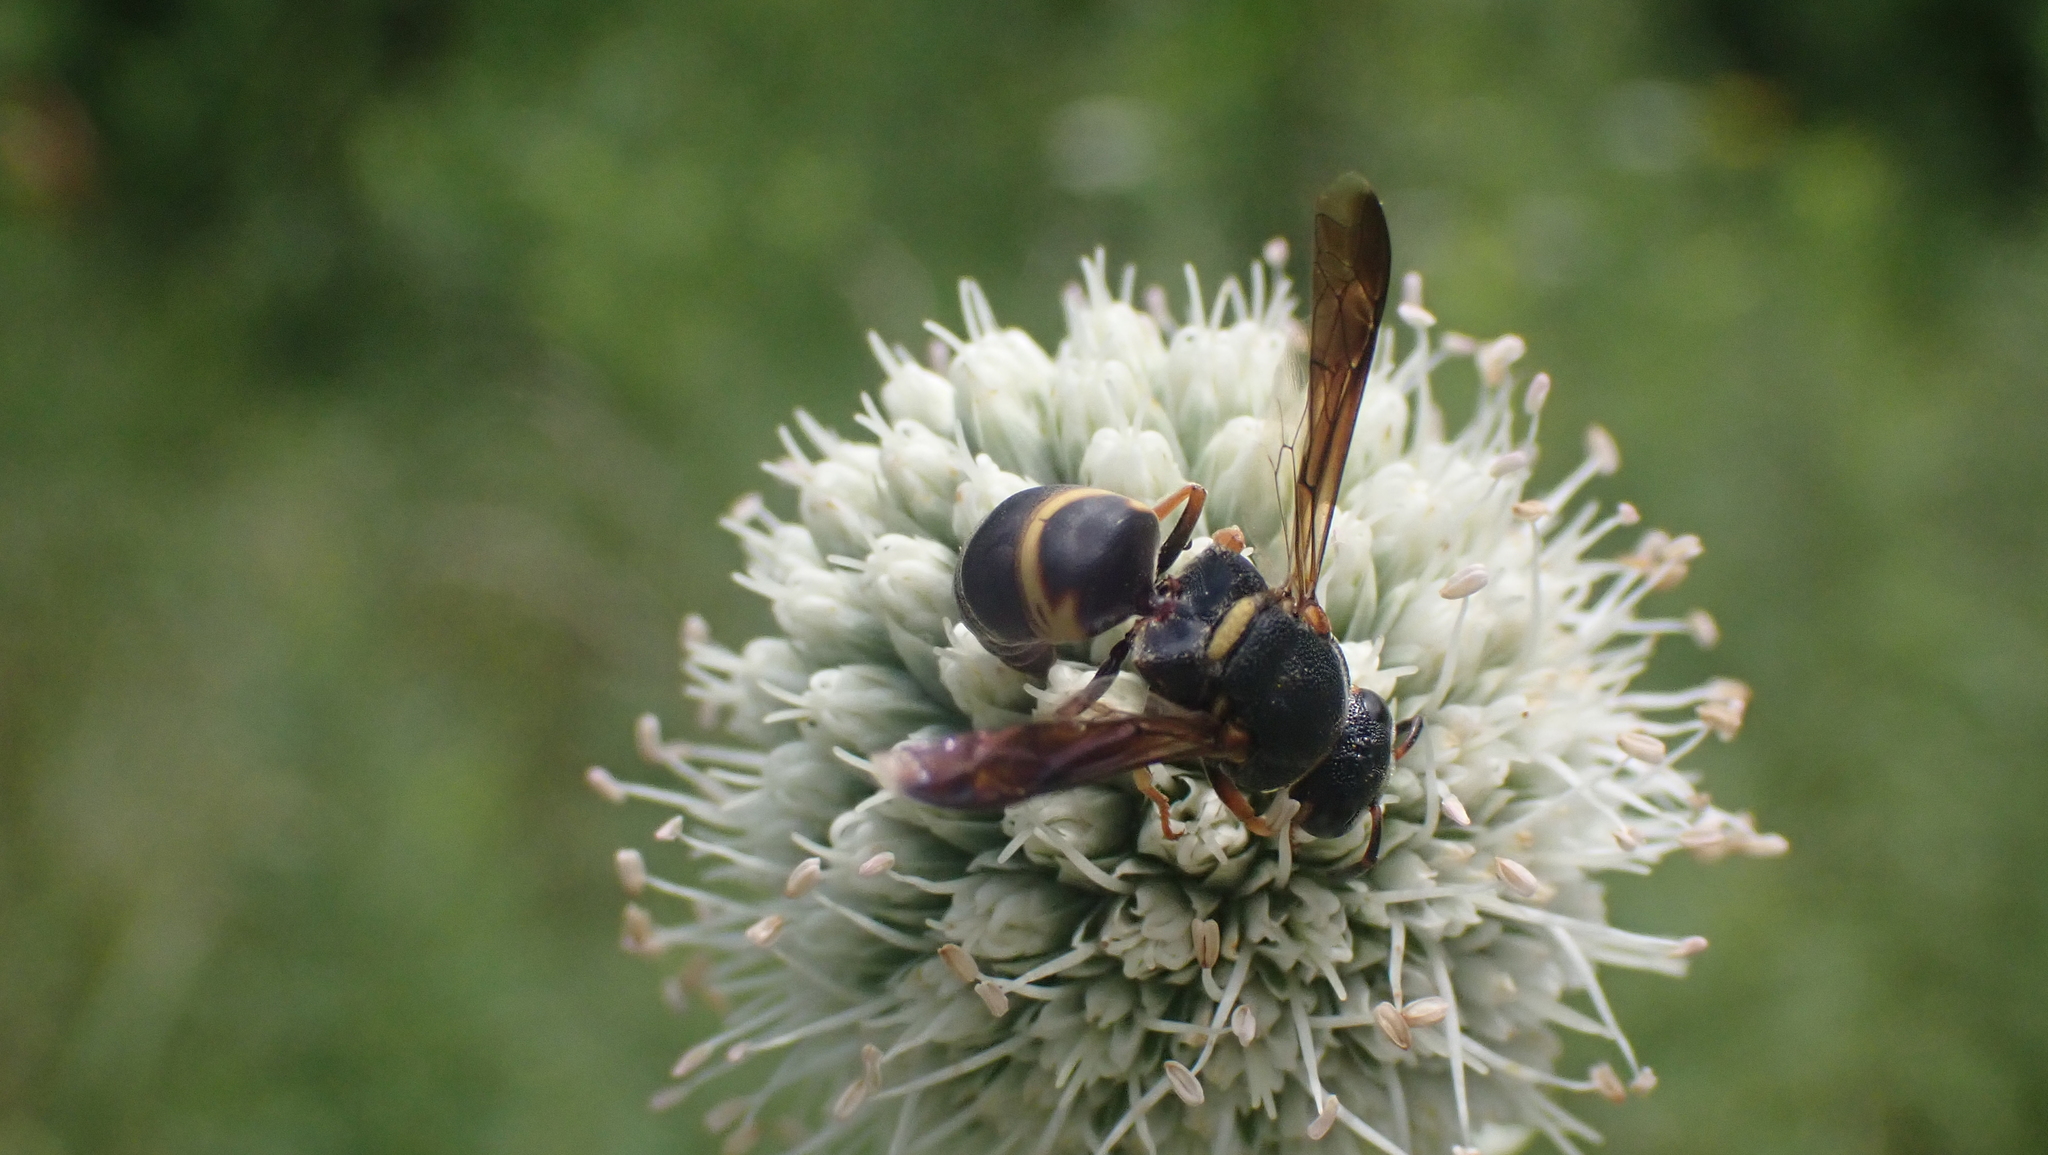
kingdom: Animalia
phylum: Arthropoda
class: Insecta
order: Hymenoptera
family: Eumenidae
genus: Euodynerus
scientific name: Euodynerus hidalgo
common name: Wasp
